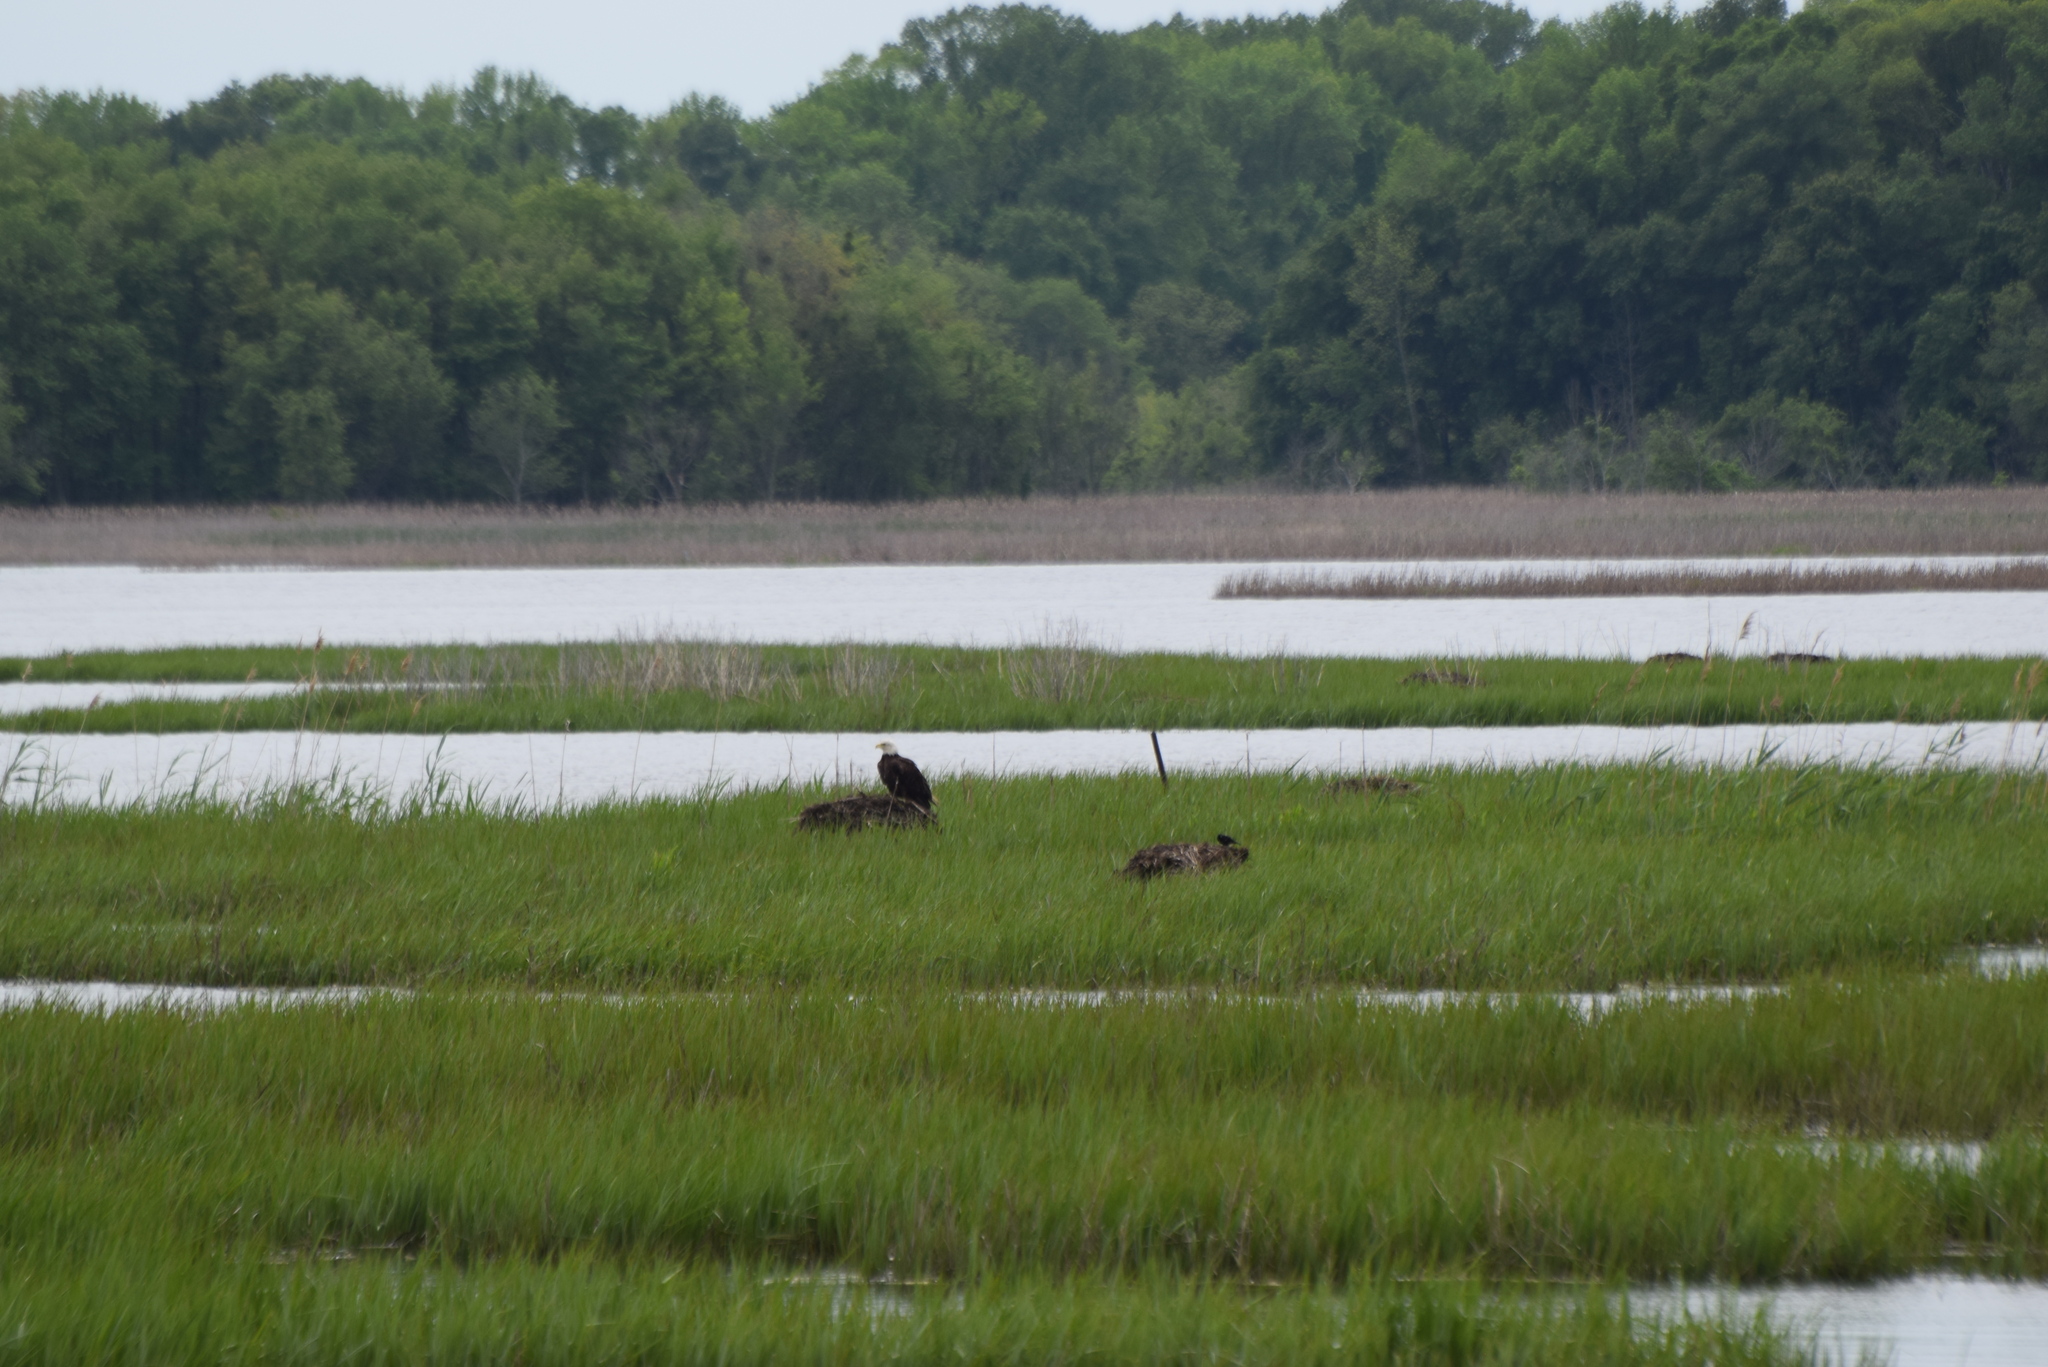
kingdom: Animalia
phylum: Chordata
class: Aves
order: Accipitriformes
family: Accipitridae
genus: Haliaeetus
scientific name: Haliaeetus leucocephalus
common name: Bald eagle
